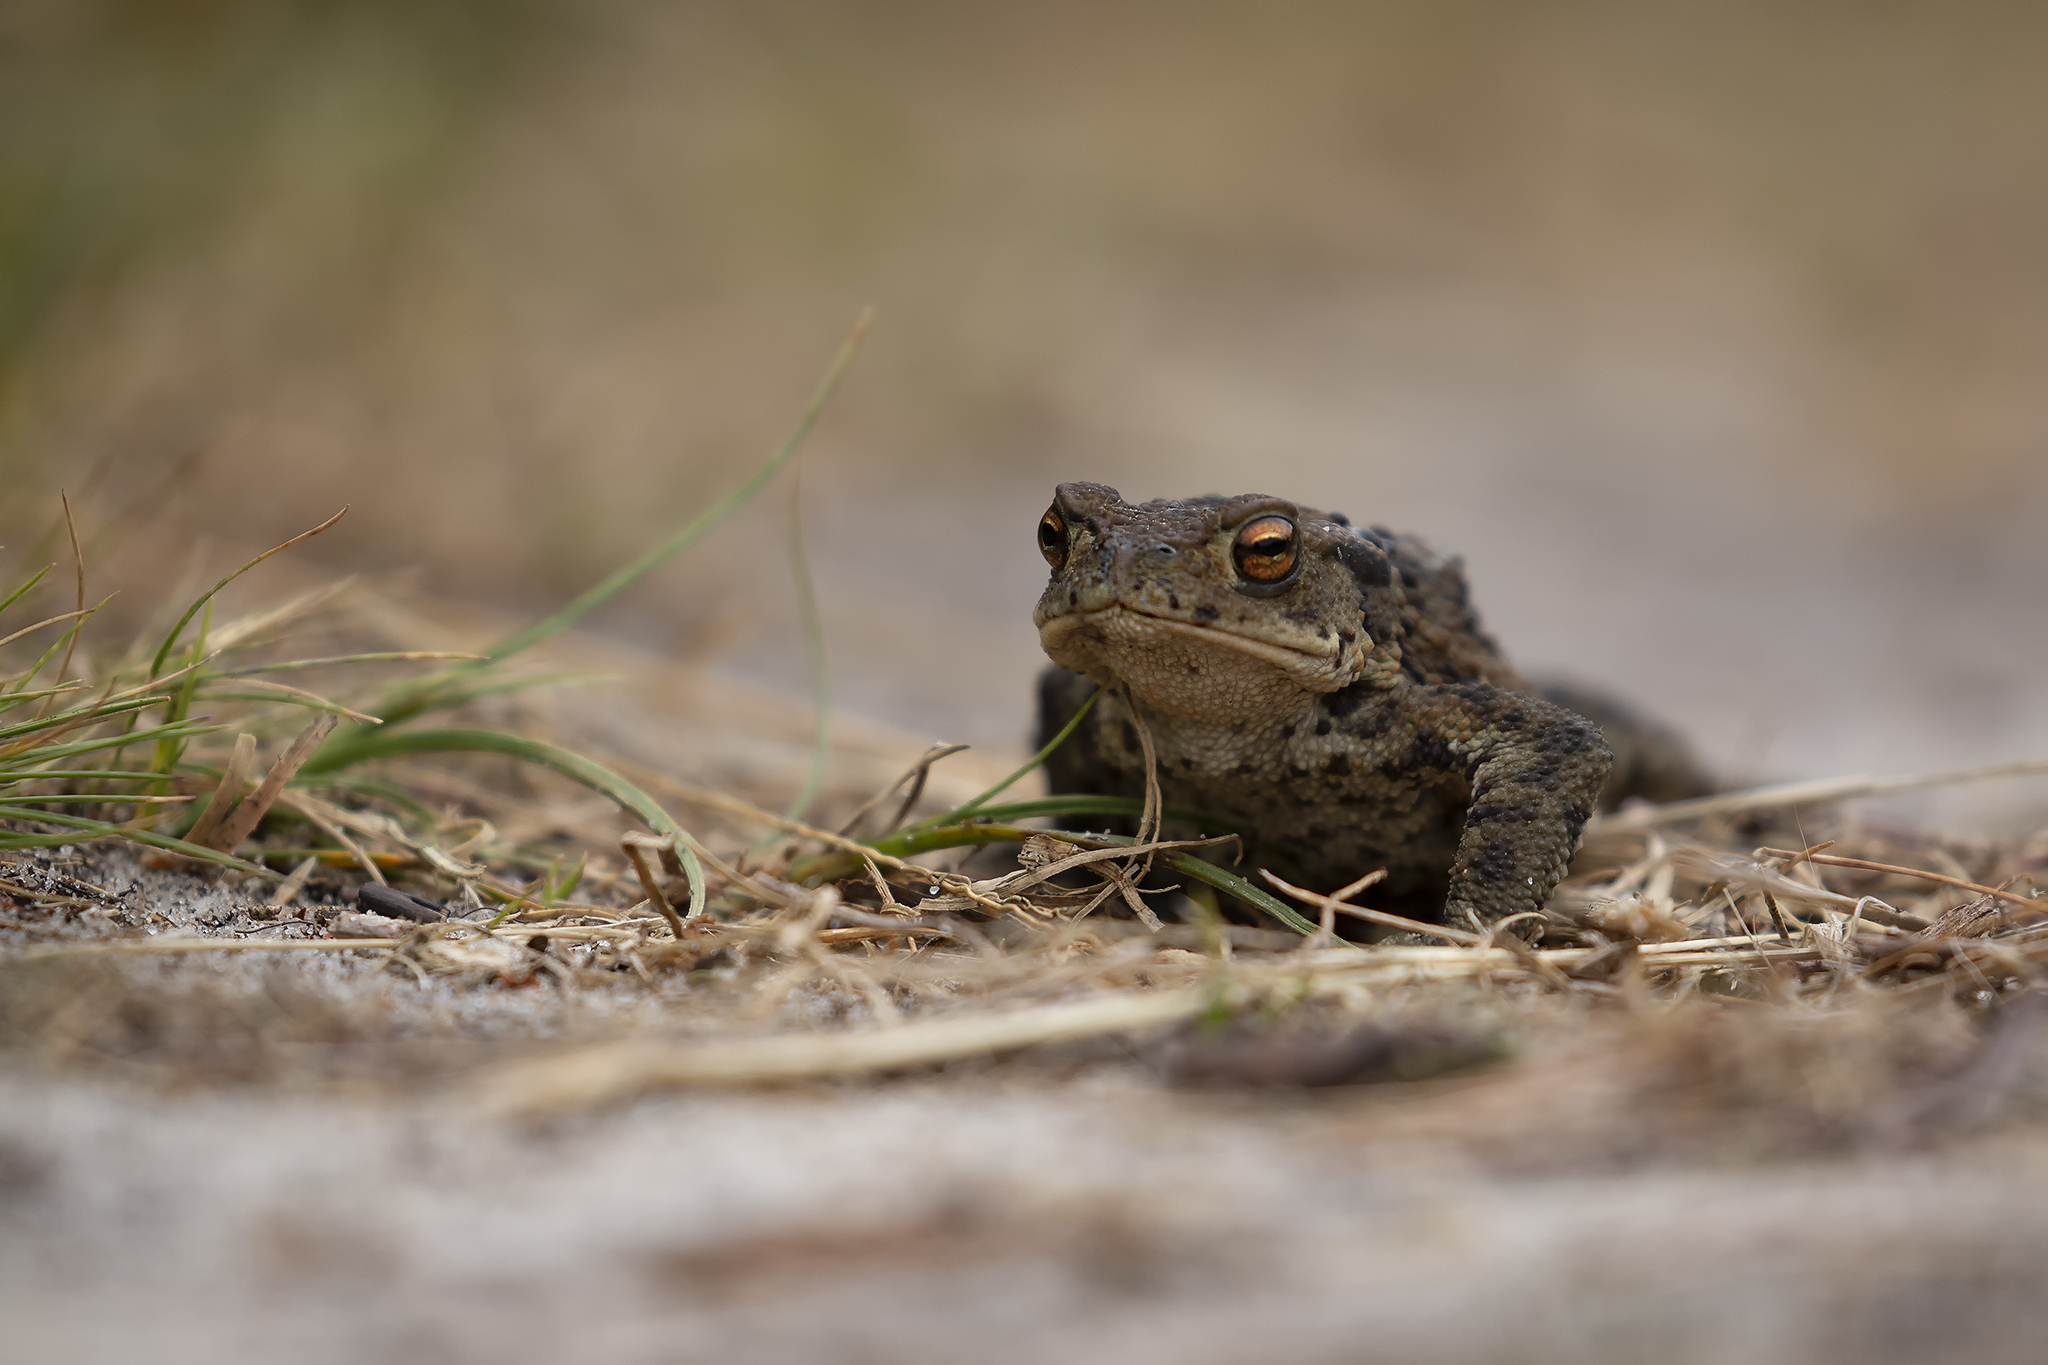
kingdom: Animalia
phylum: Chordata
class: Amphibia
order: Anura
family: Bufonidae
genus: Bufo
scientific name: Bufo bufo
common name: Common toad
